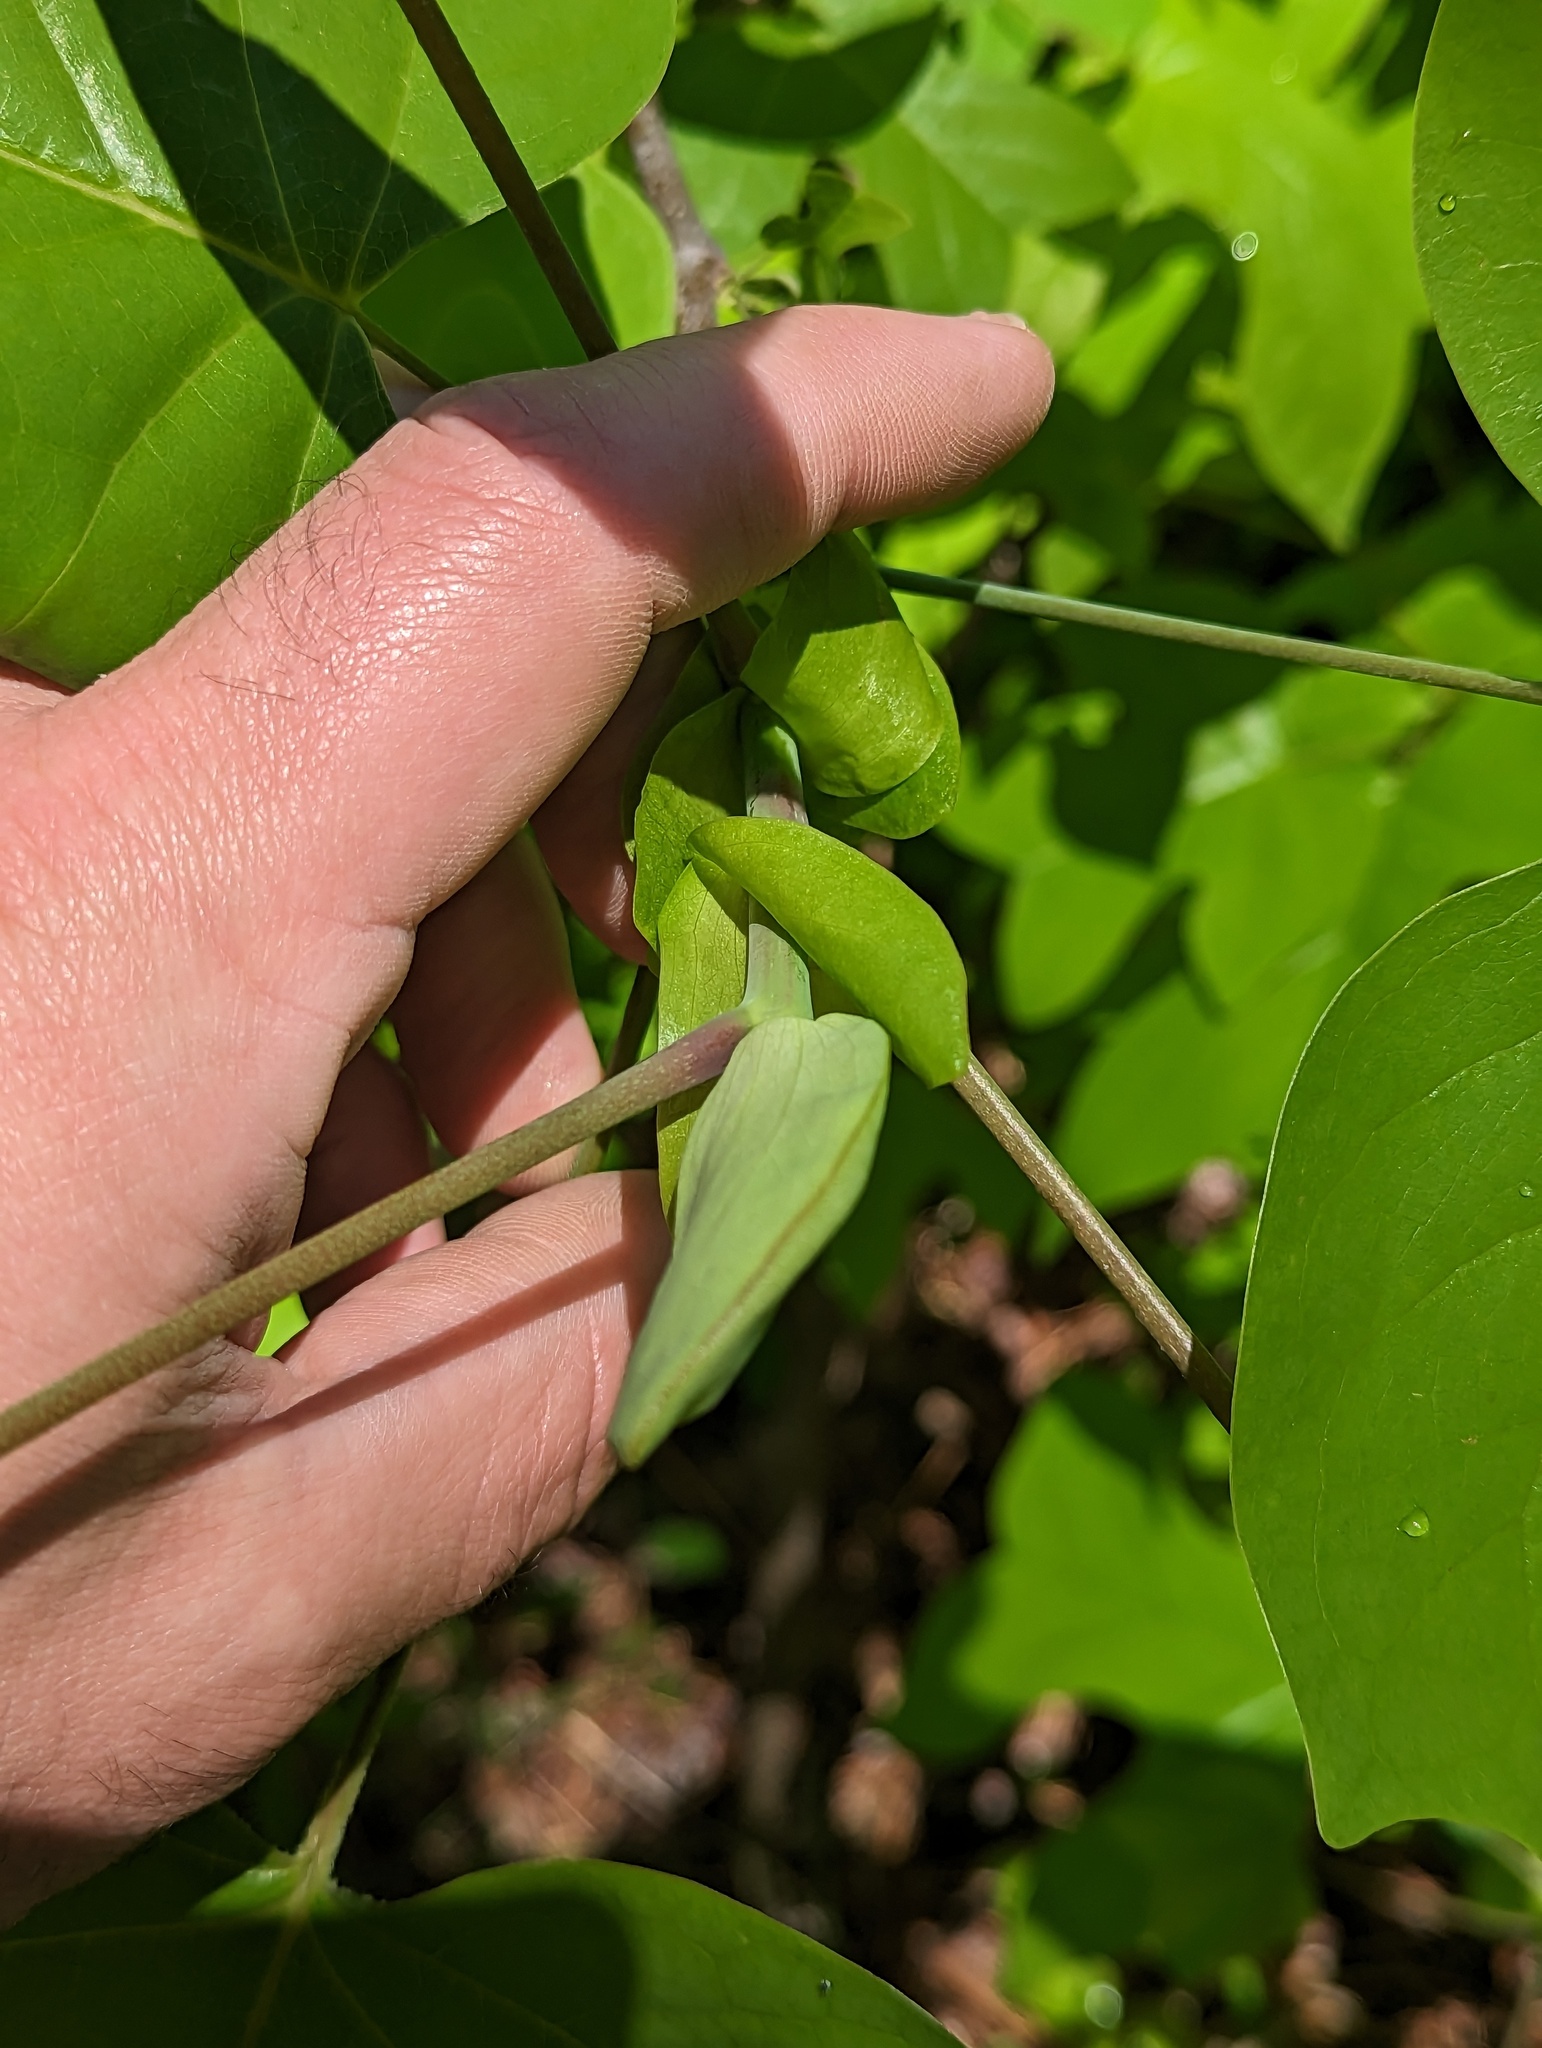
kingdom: Plantae
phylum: Tracheophyta
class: Magnoliopsida
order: Magnoliales
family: Magnoliaceae
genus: Liriodendron
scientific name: Liriodendron tulipifera
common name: Tulip tree
